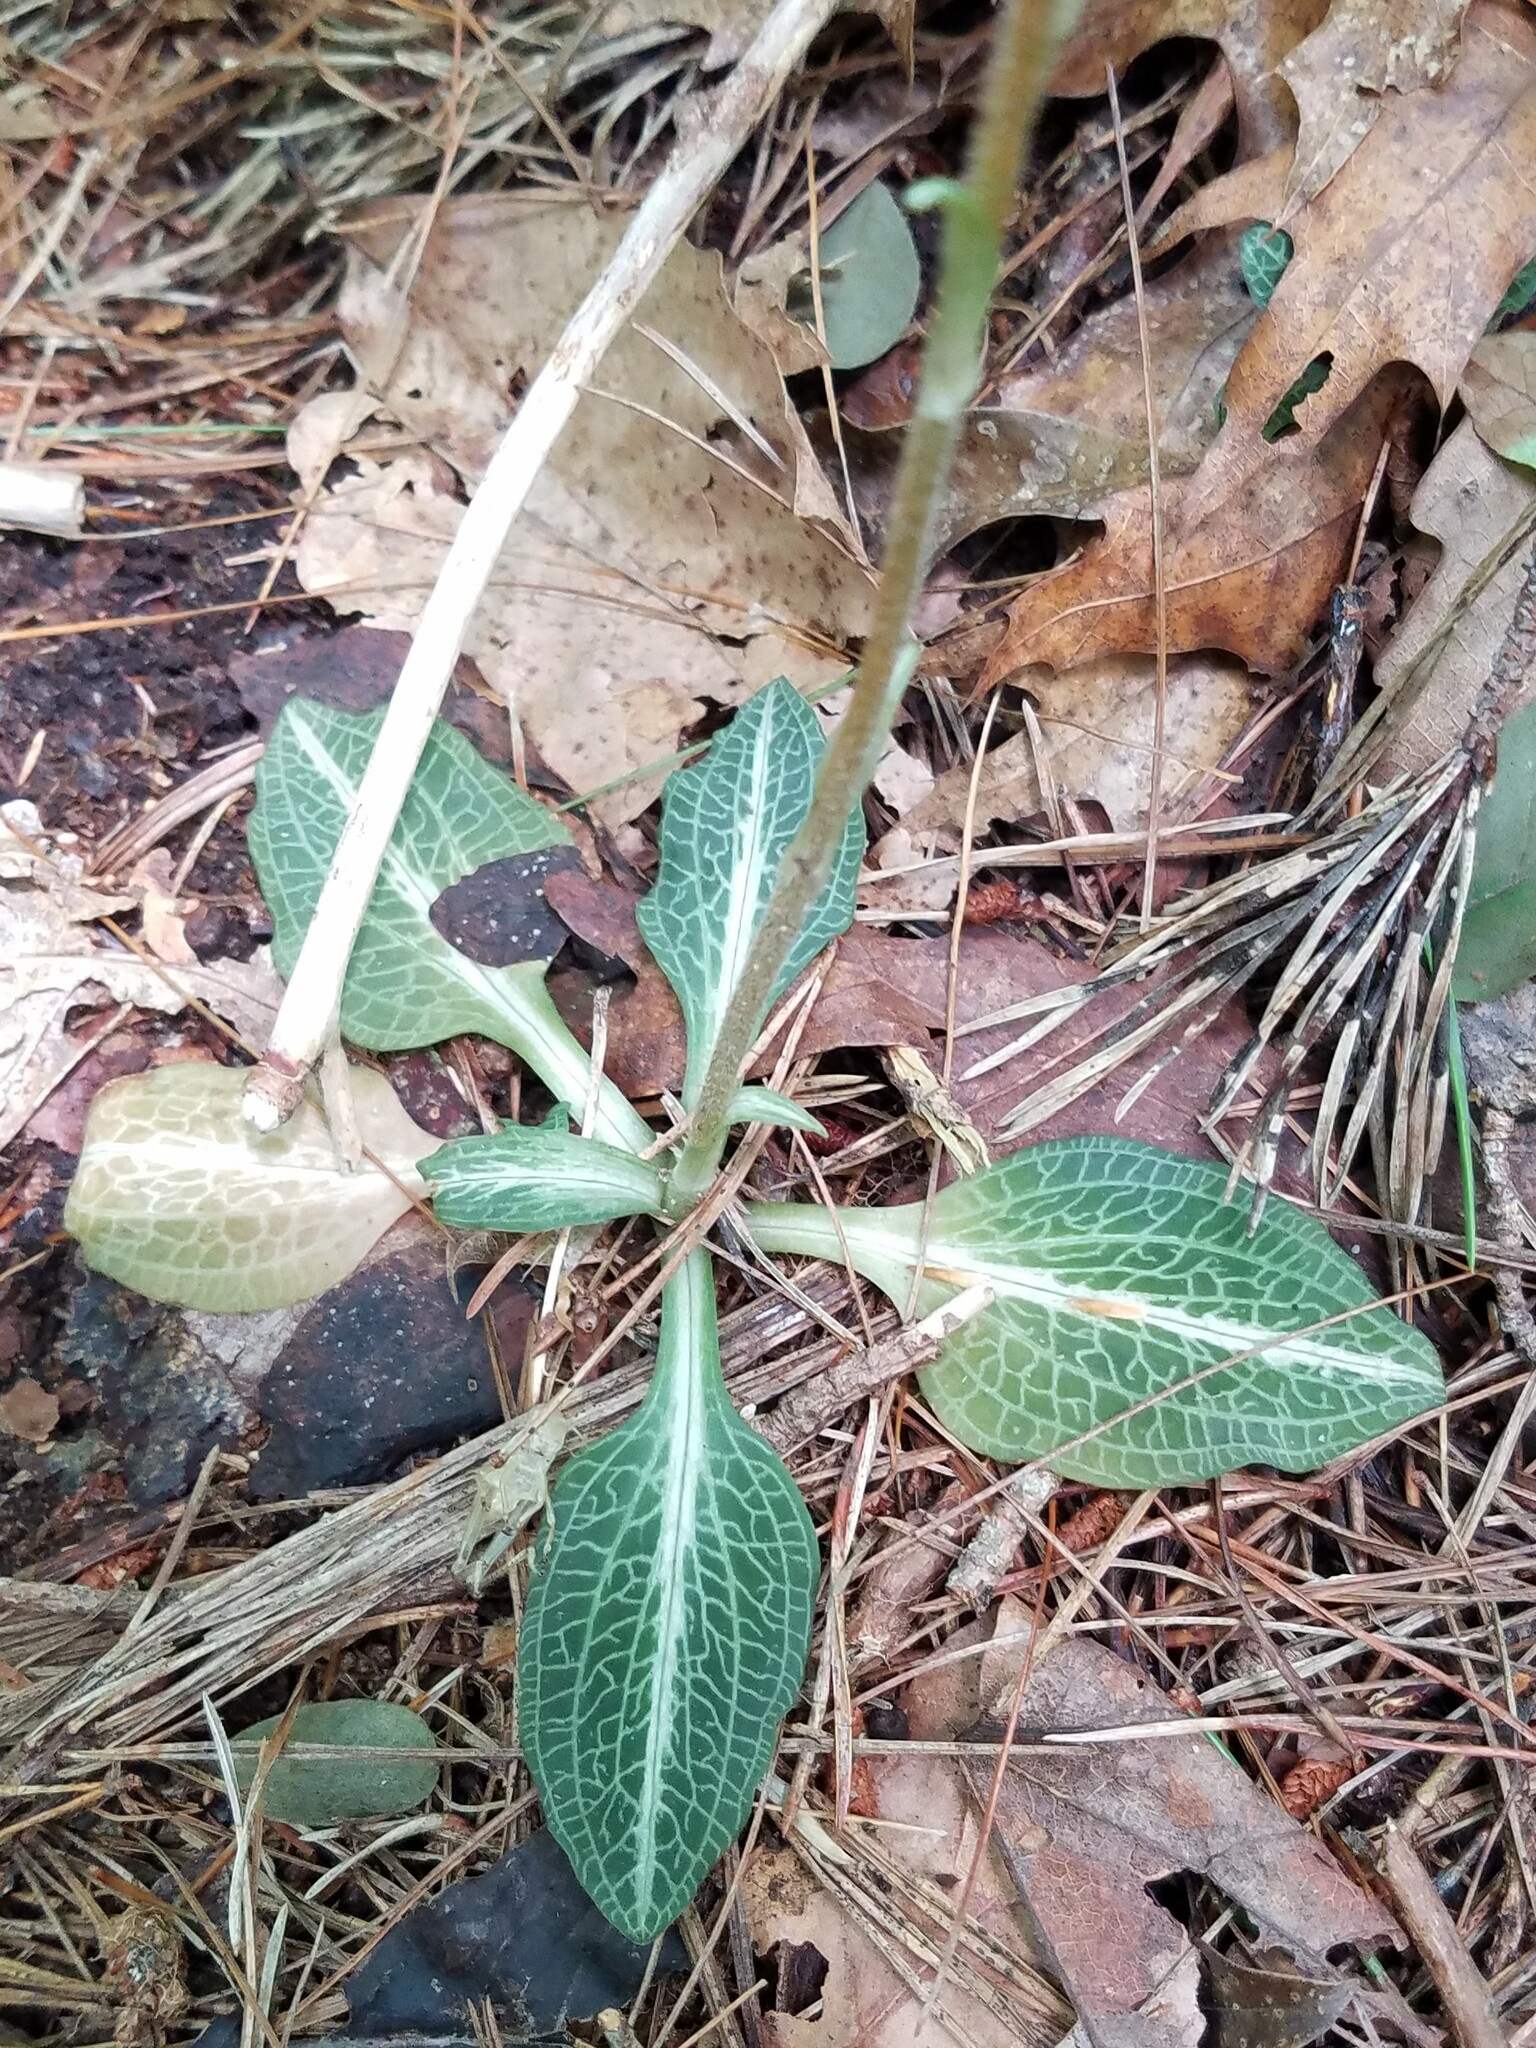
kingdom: Plantae
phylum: Tracheophyta
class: Liliopsida
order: Asparagales
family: Orchidaceae
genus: Goodyera
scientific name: Goodyera pubescens
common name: Downy rattlesnake-plantain
